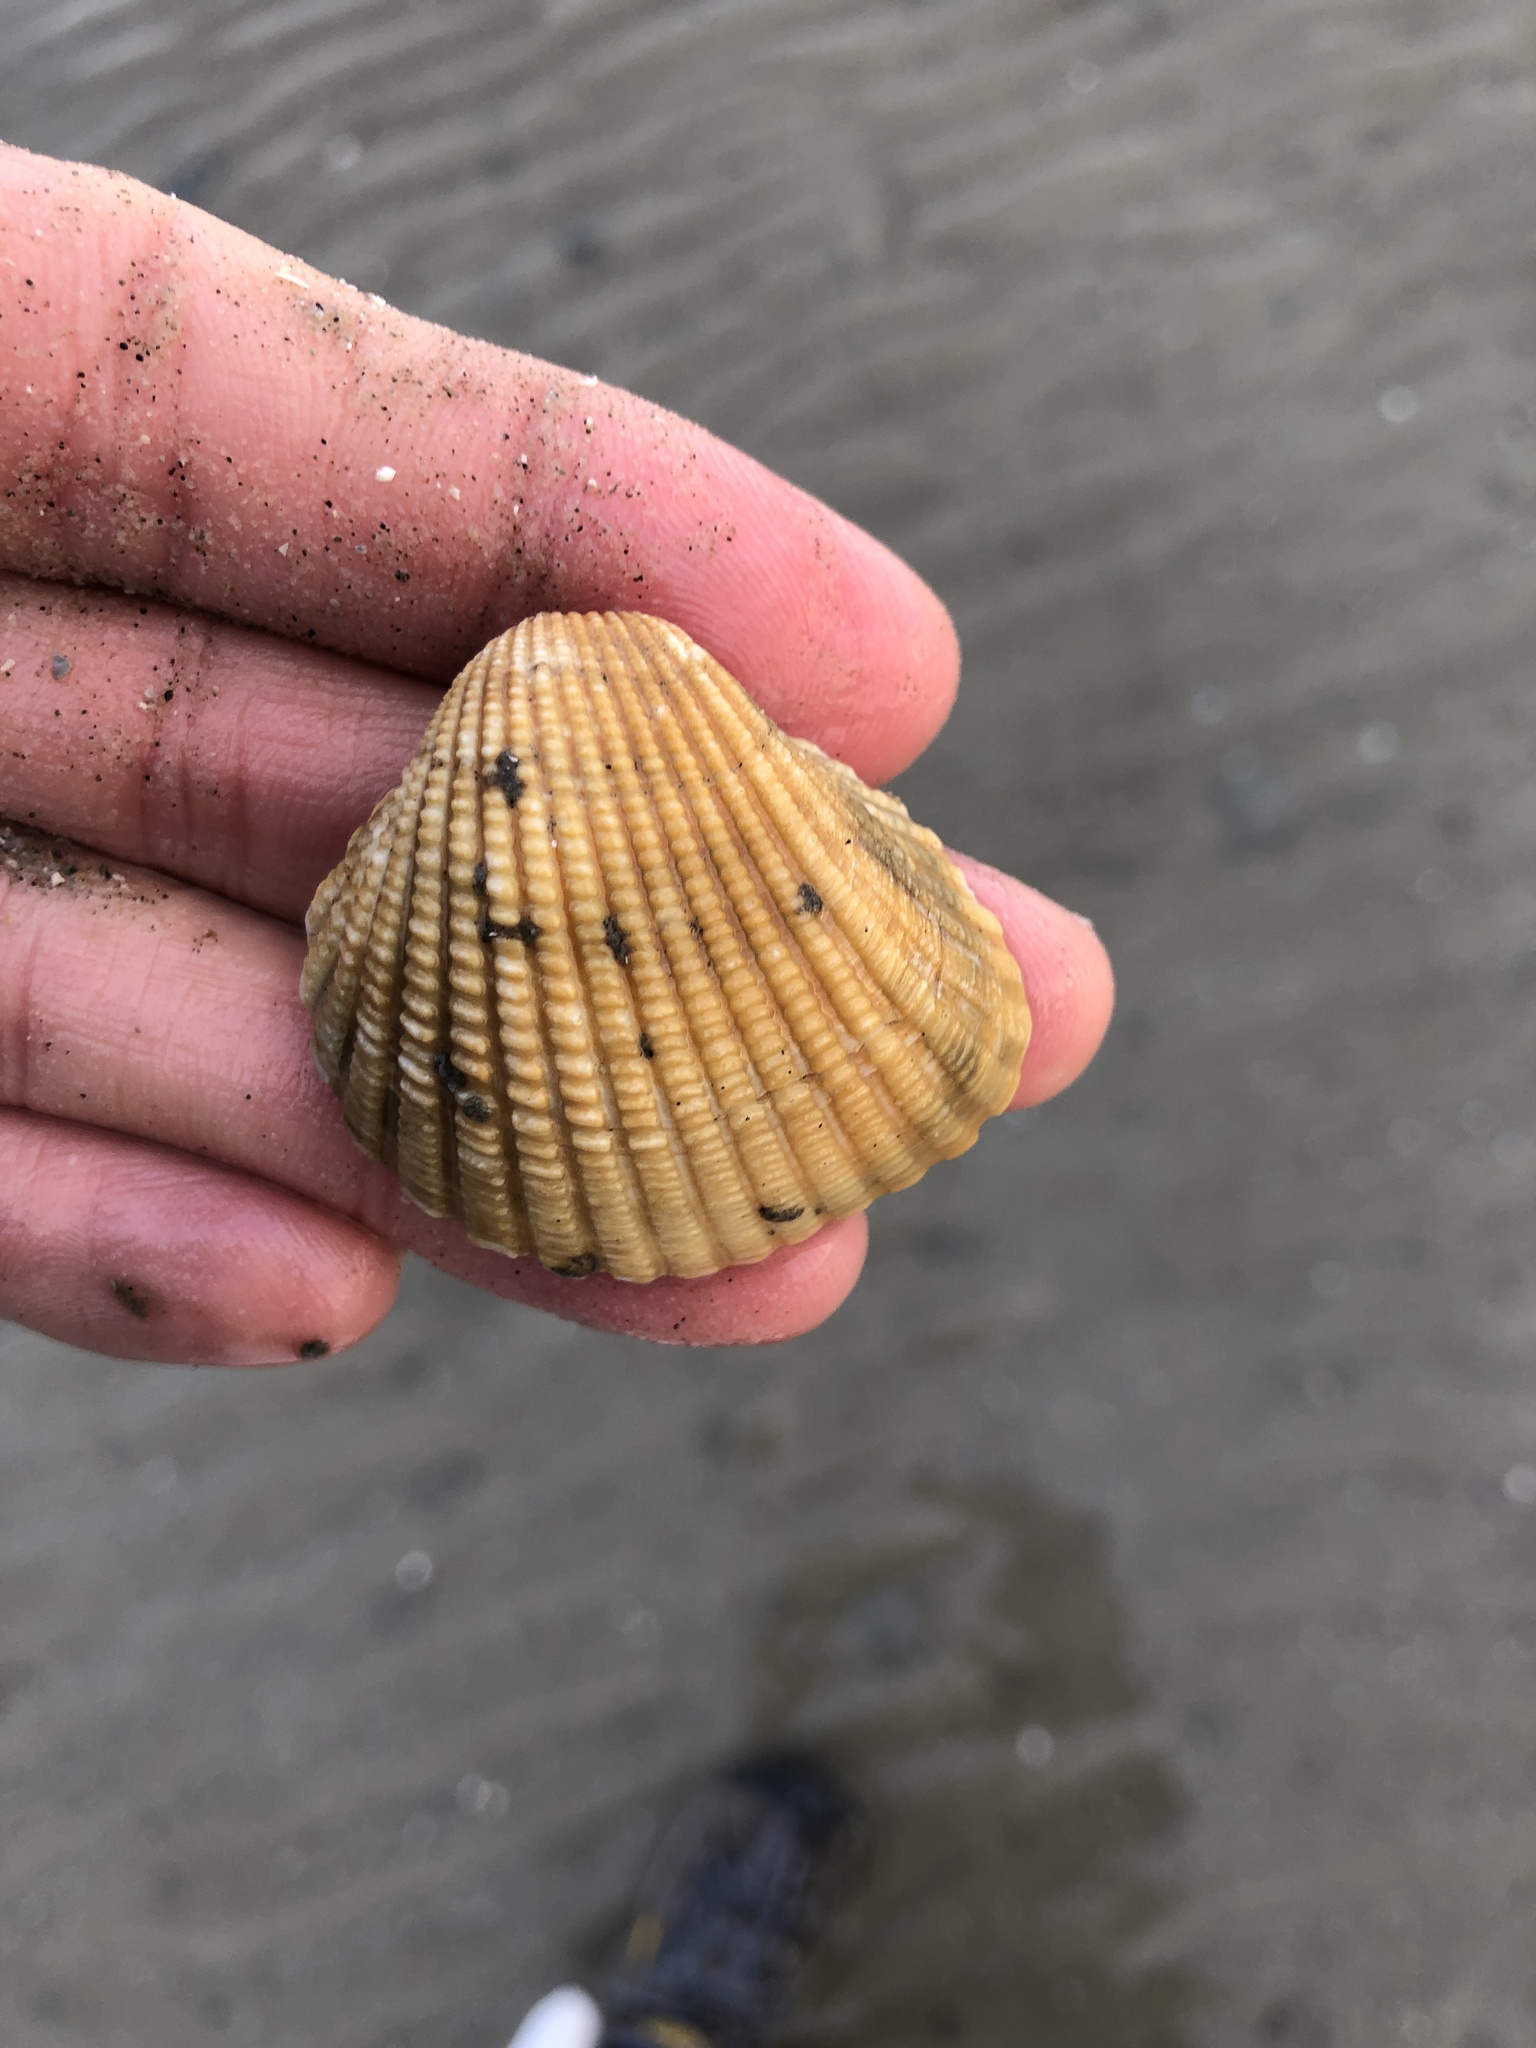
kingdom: Animalia
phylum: Mollusca
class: Bivalvia
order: Arcida
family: Arcidae
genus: Anadara
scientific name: Anadara brasiliana
